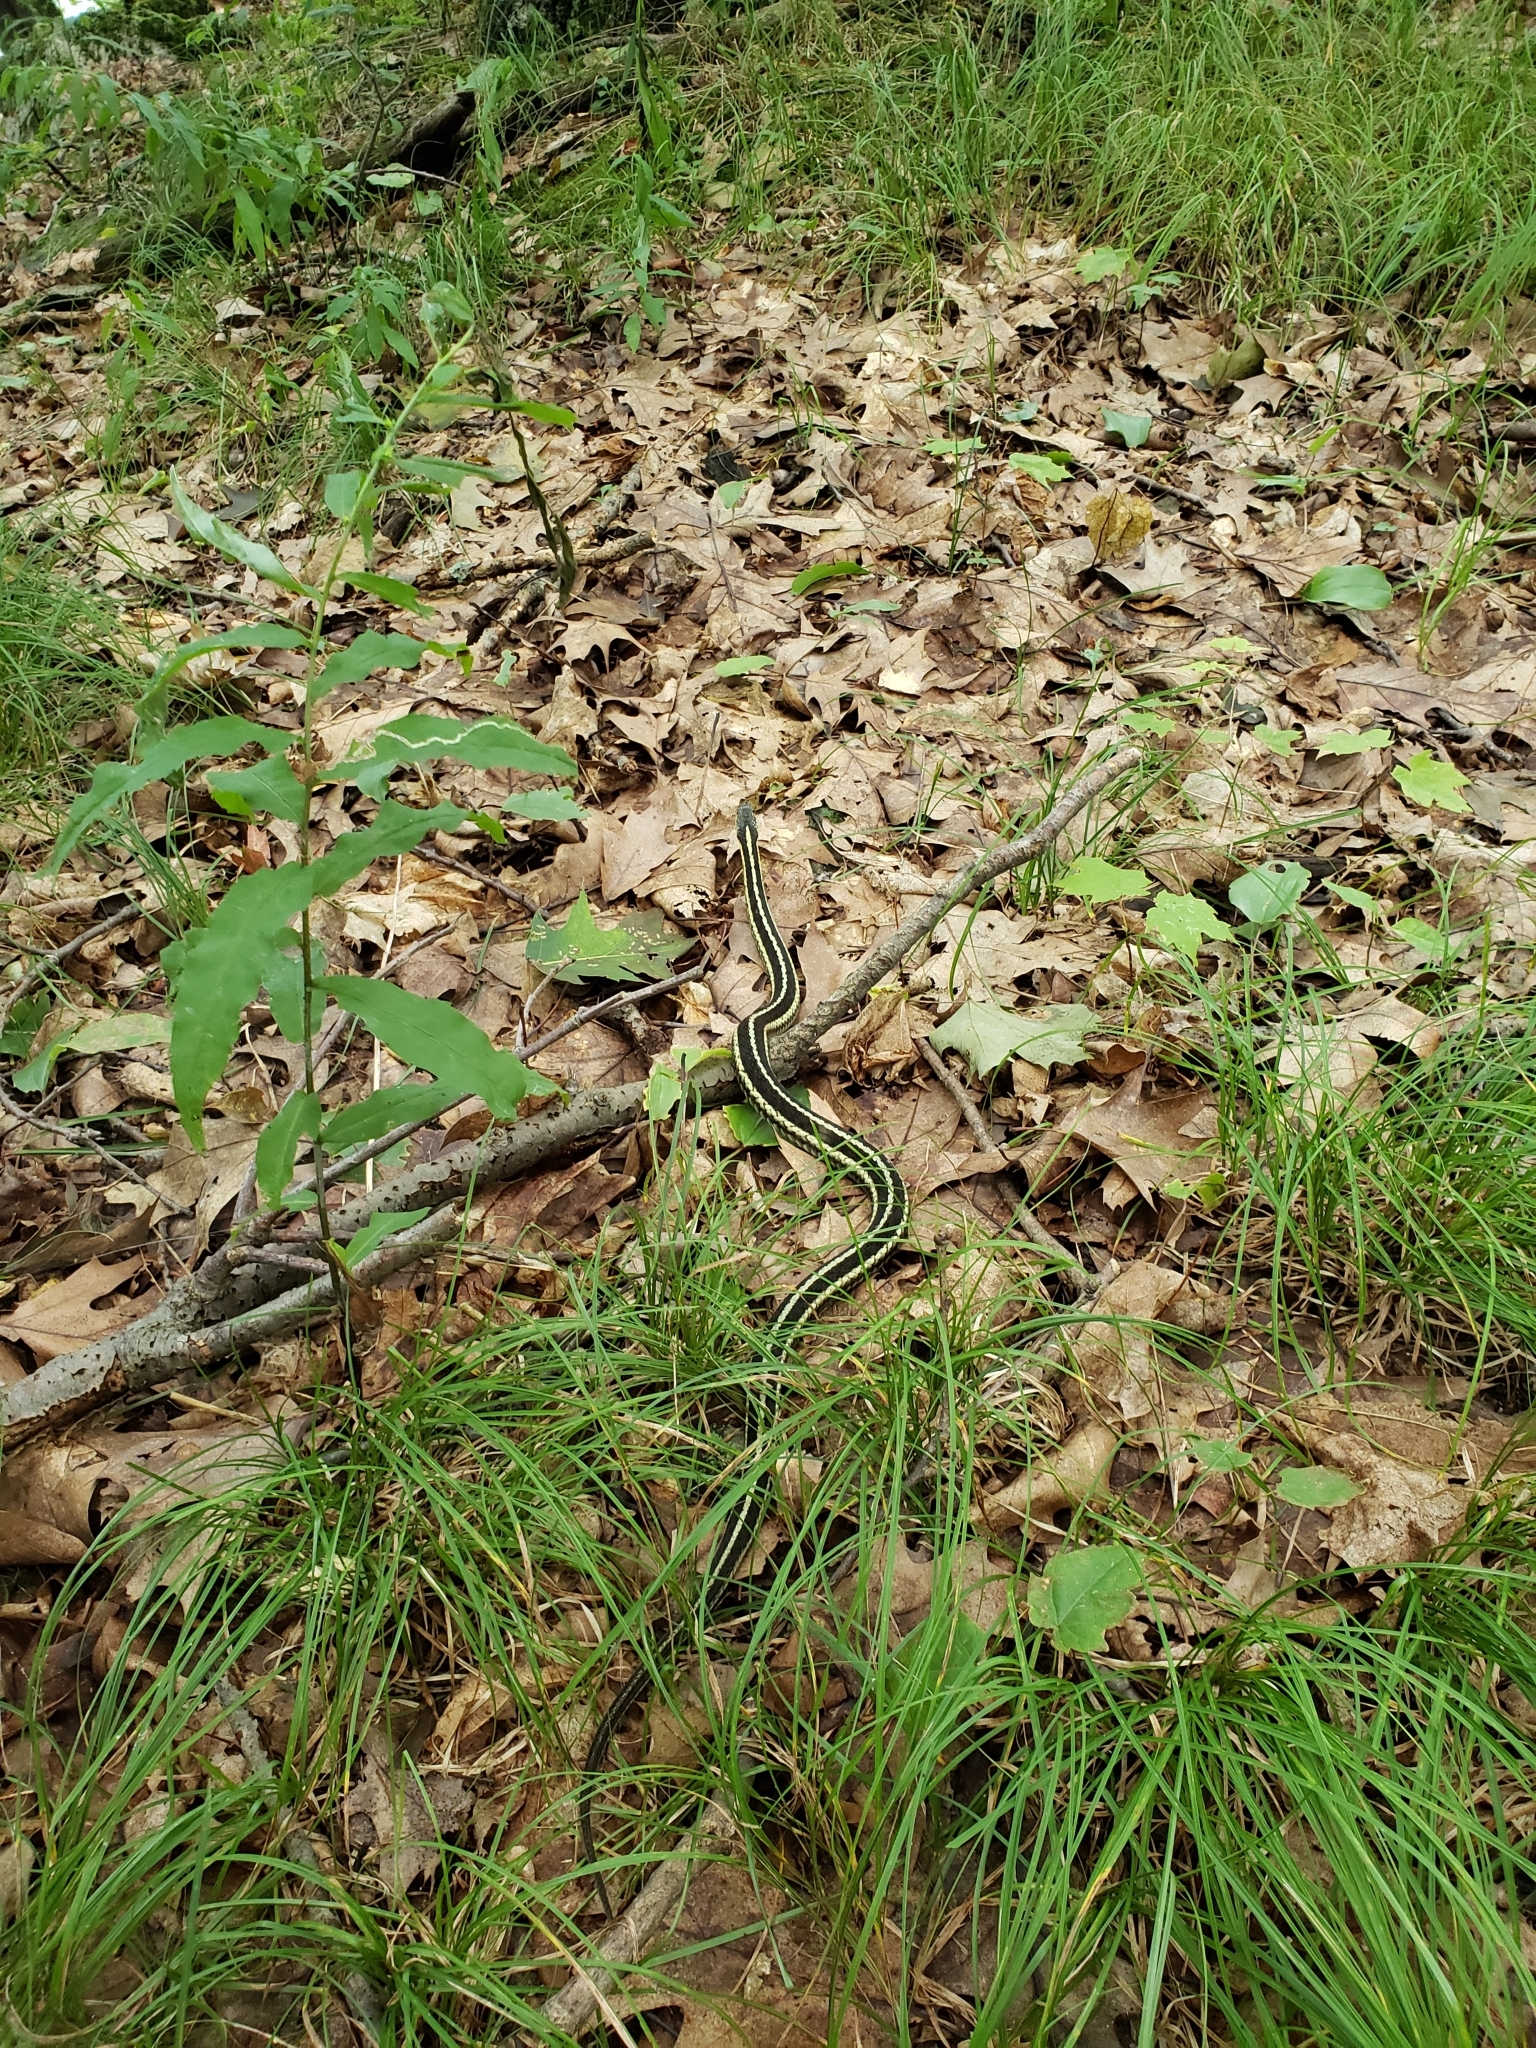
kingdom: Animalia
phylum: Chordata
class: Squamata
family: Colubridae
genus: Thamnophis
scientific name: Thamnophis sirtalis
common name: Common garter snake
